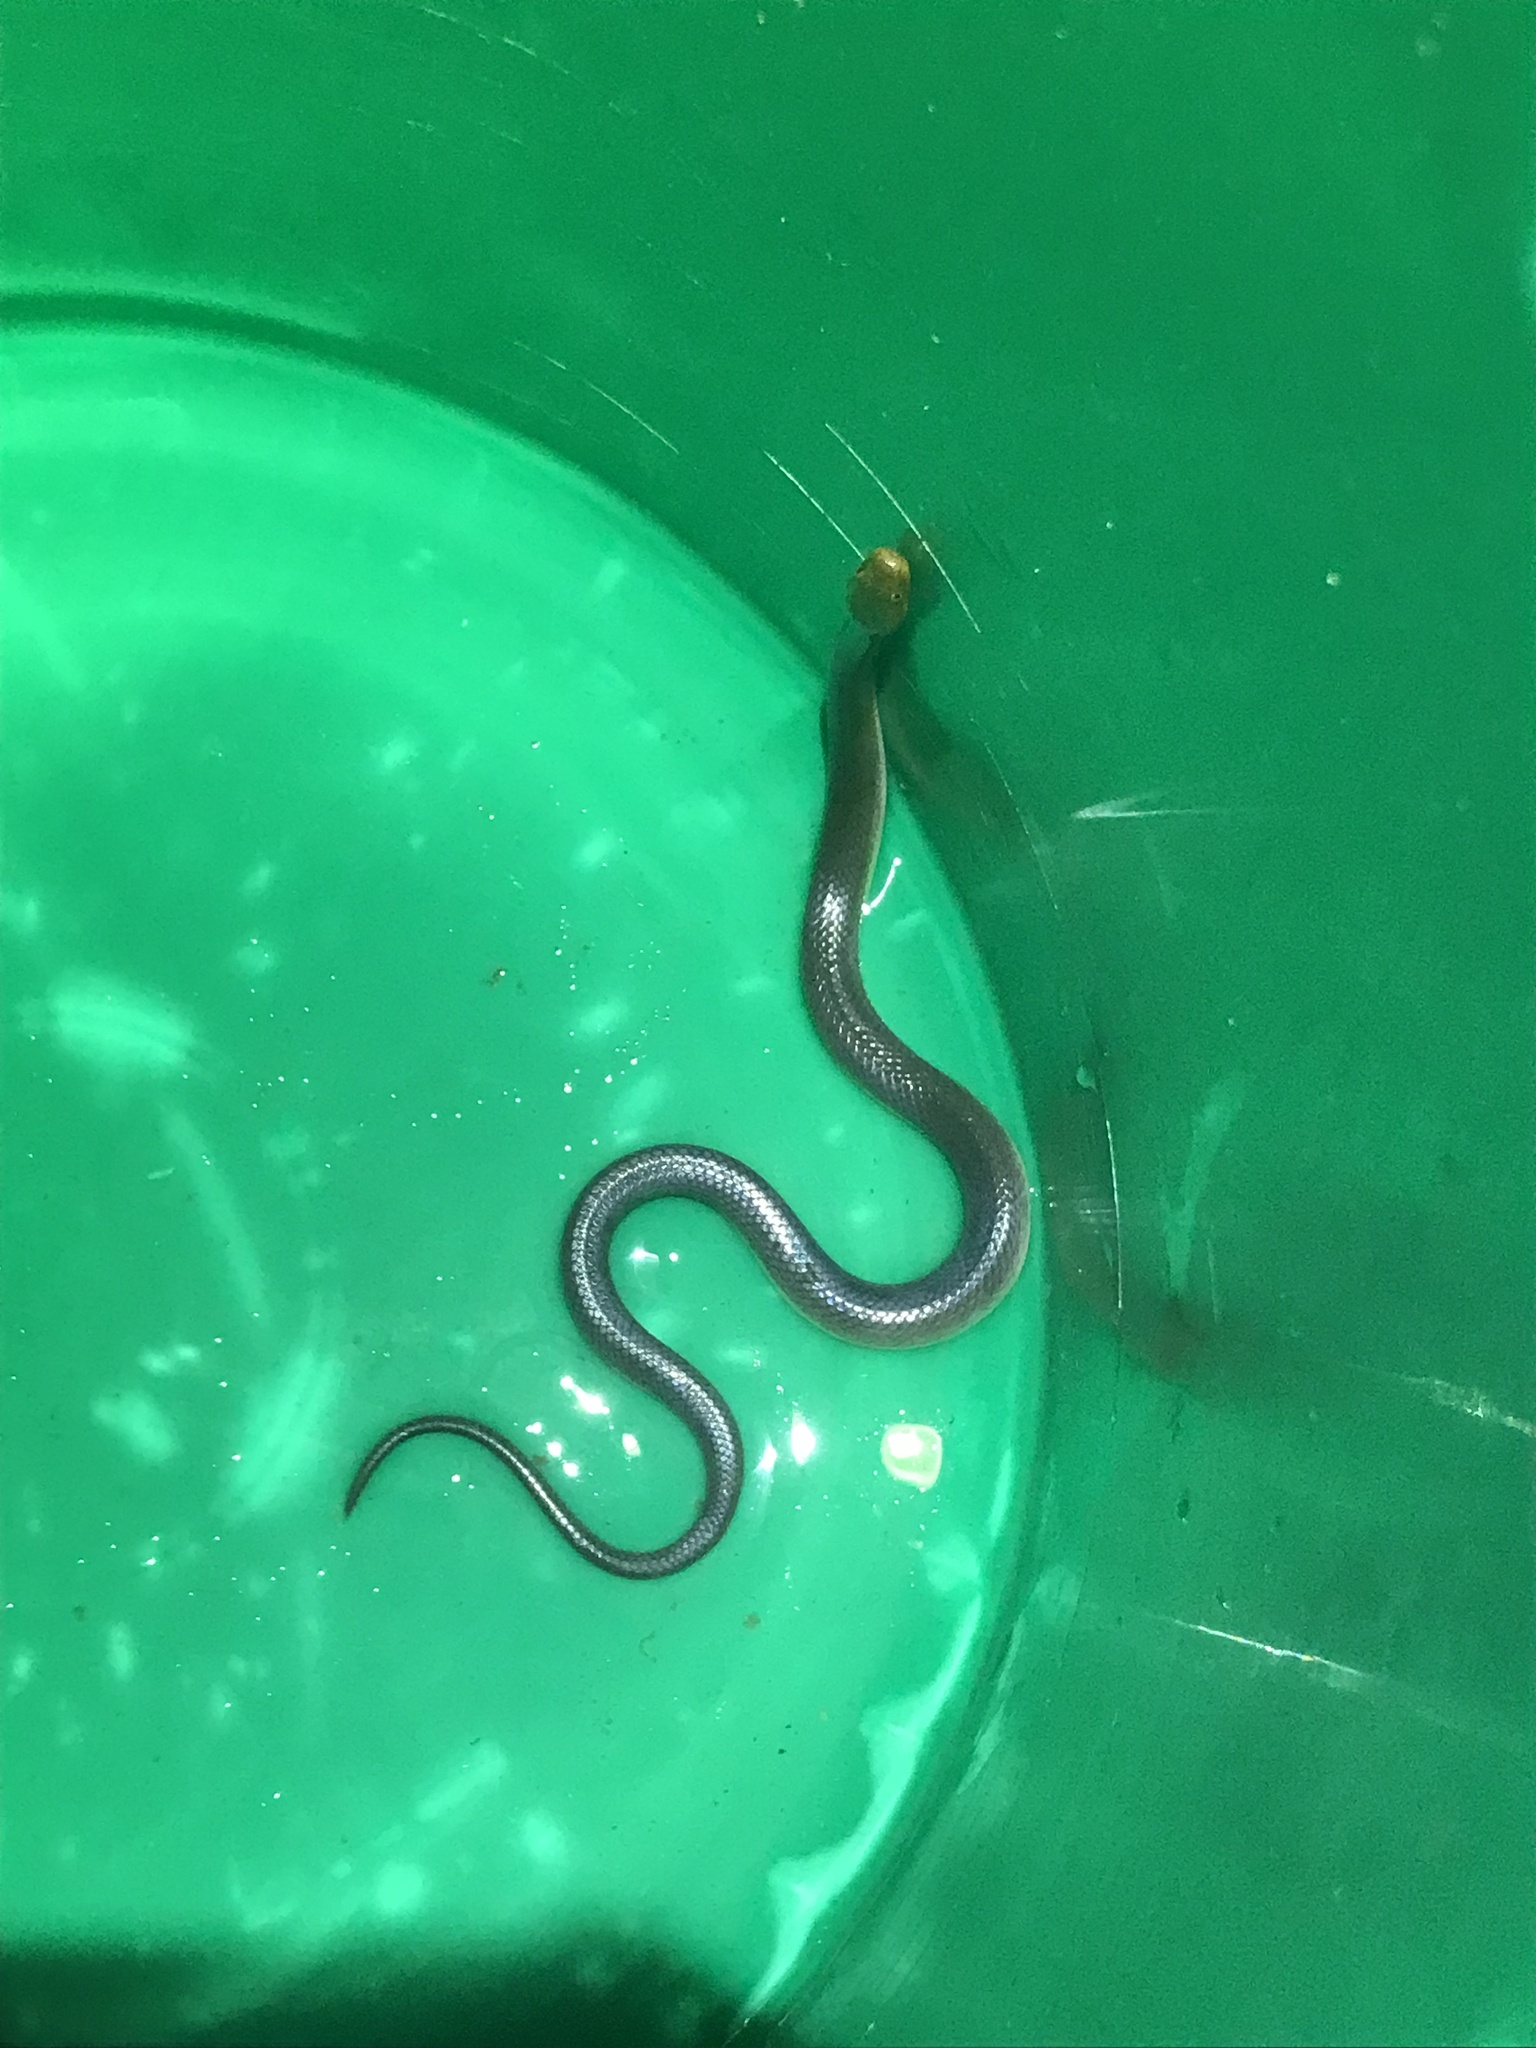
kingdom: Animalia
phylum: Chordata
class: Squamata
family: Lamprophiidae
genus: Lycodonomorphus
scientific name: Lycodonomorphus bicolor
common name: Tanganyika water snake
